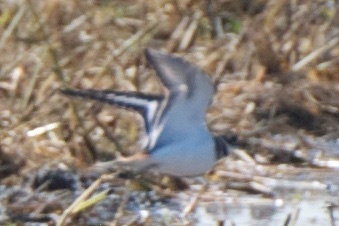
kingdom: Animalia
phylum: Chordata
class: Aves
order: Charadriiformes
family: Charadriidae
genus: Charadrius
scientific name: Charadrius vociferus
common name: Killdeer
